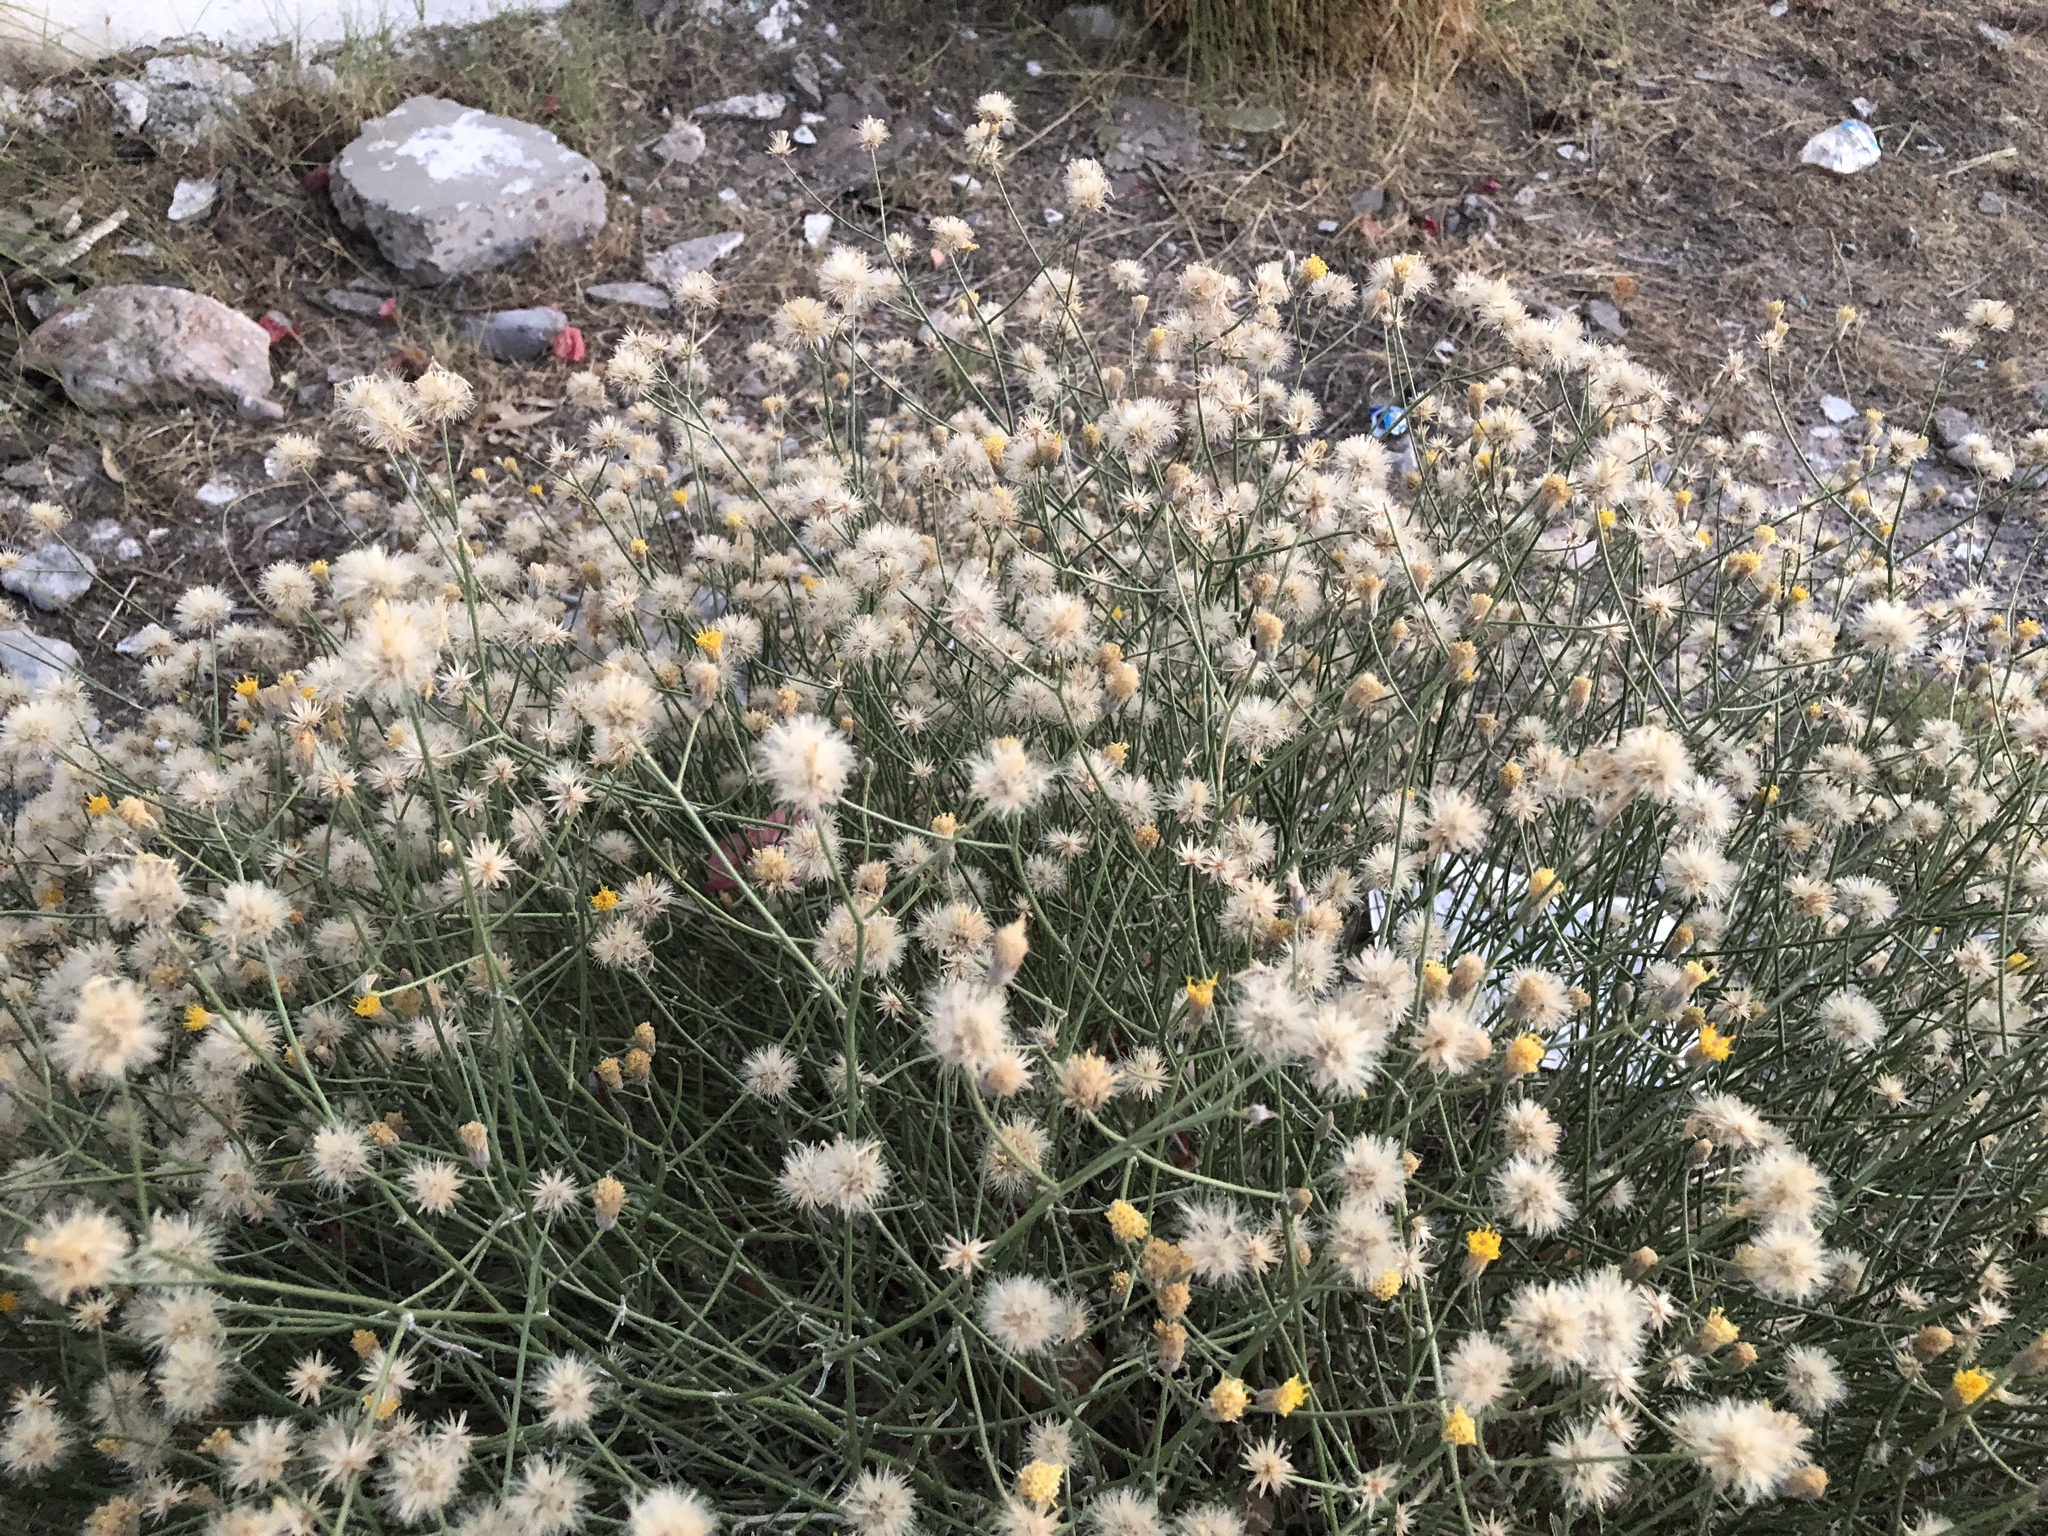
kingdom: Plantae
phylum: Tracheophyta
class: Magnoliopsida
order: Asterales
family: Asteraceae
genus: Bebbia
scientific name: Bebbia juncea
